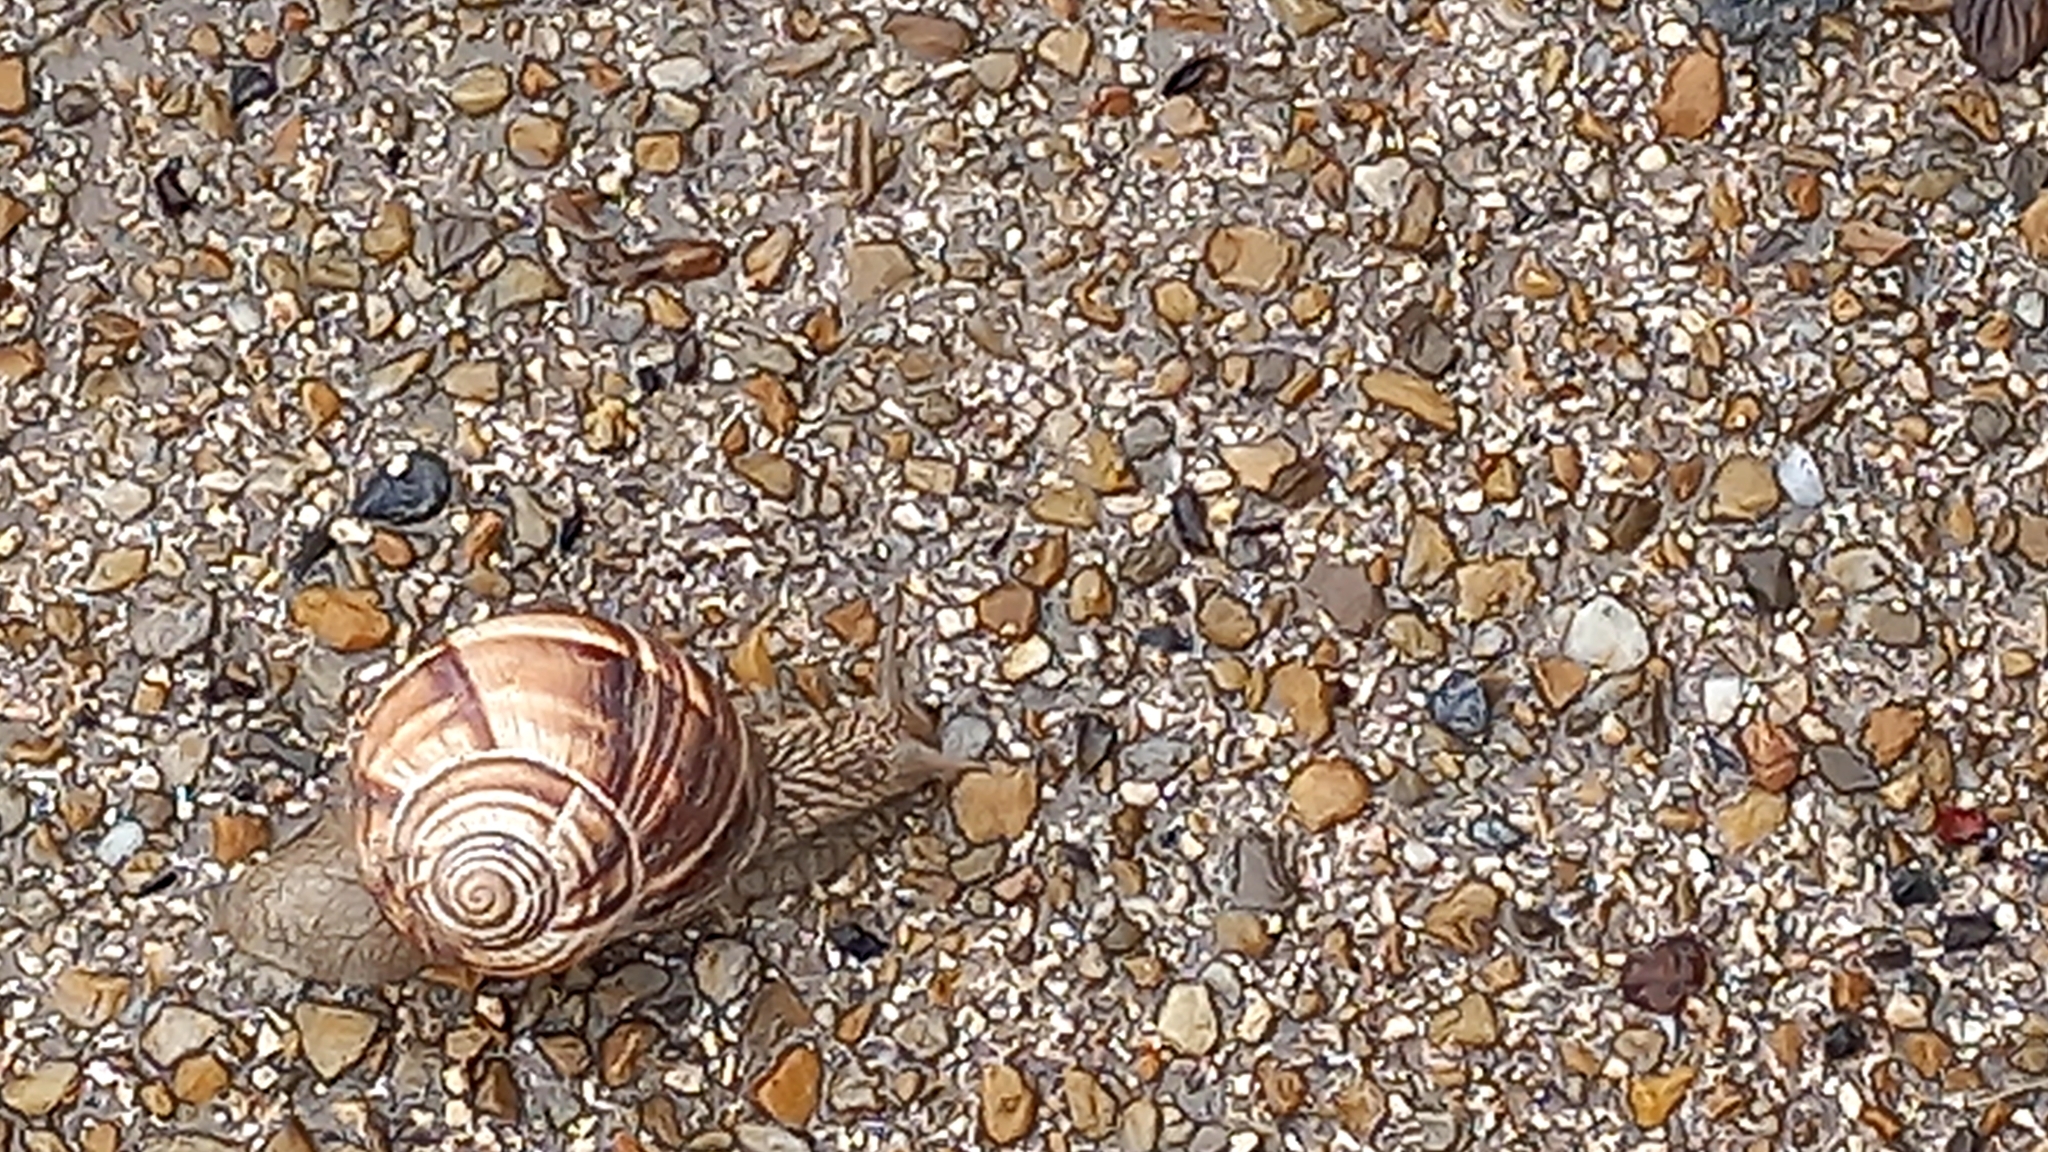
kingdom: Animalia
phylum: Mollusca
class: Gastropoda
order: Stylommatophora
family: Helicidae
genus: Helix
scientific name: Helix lucorum
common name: Turkish snail
